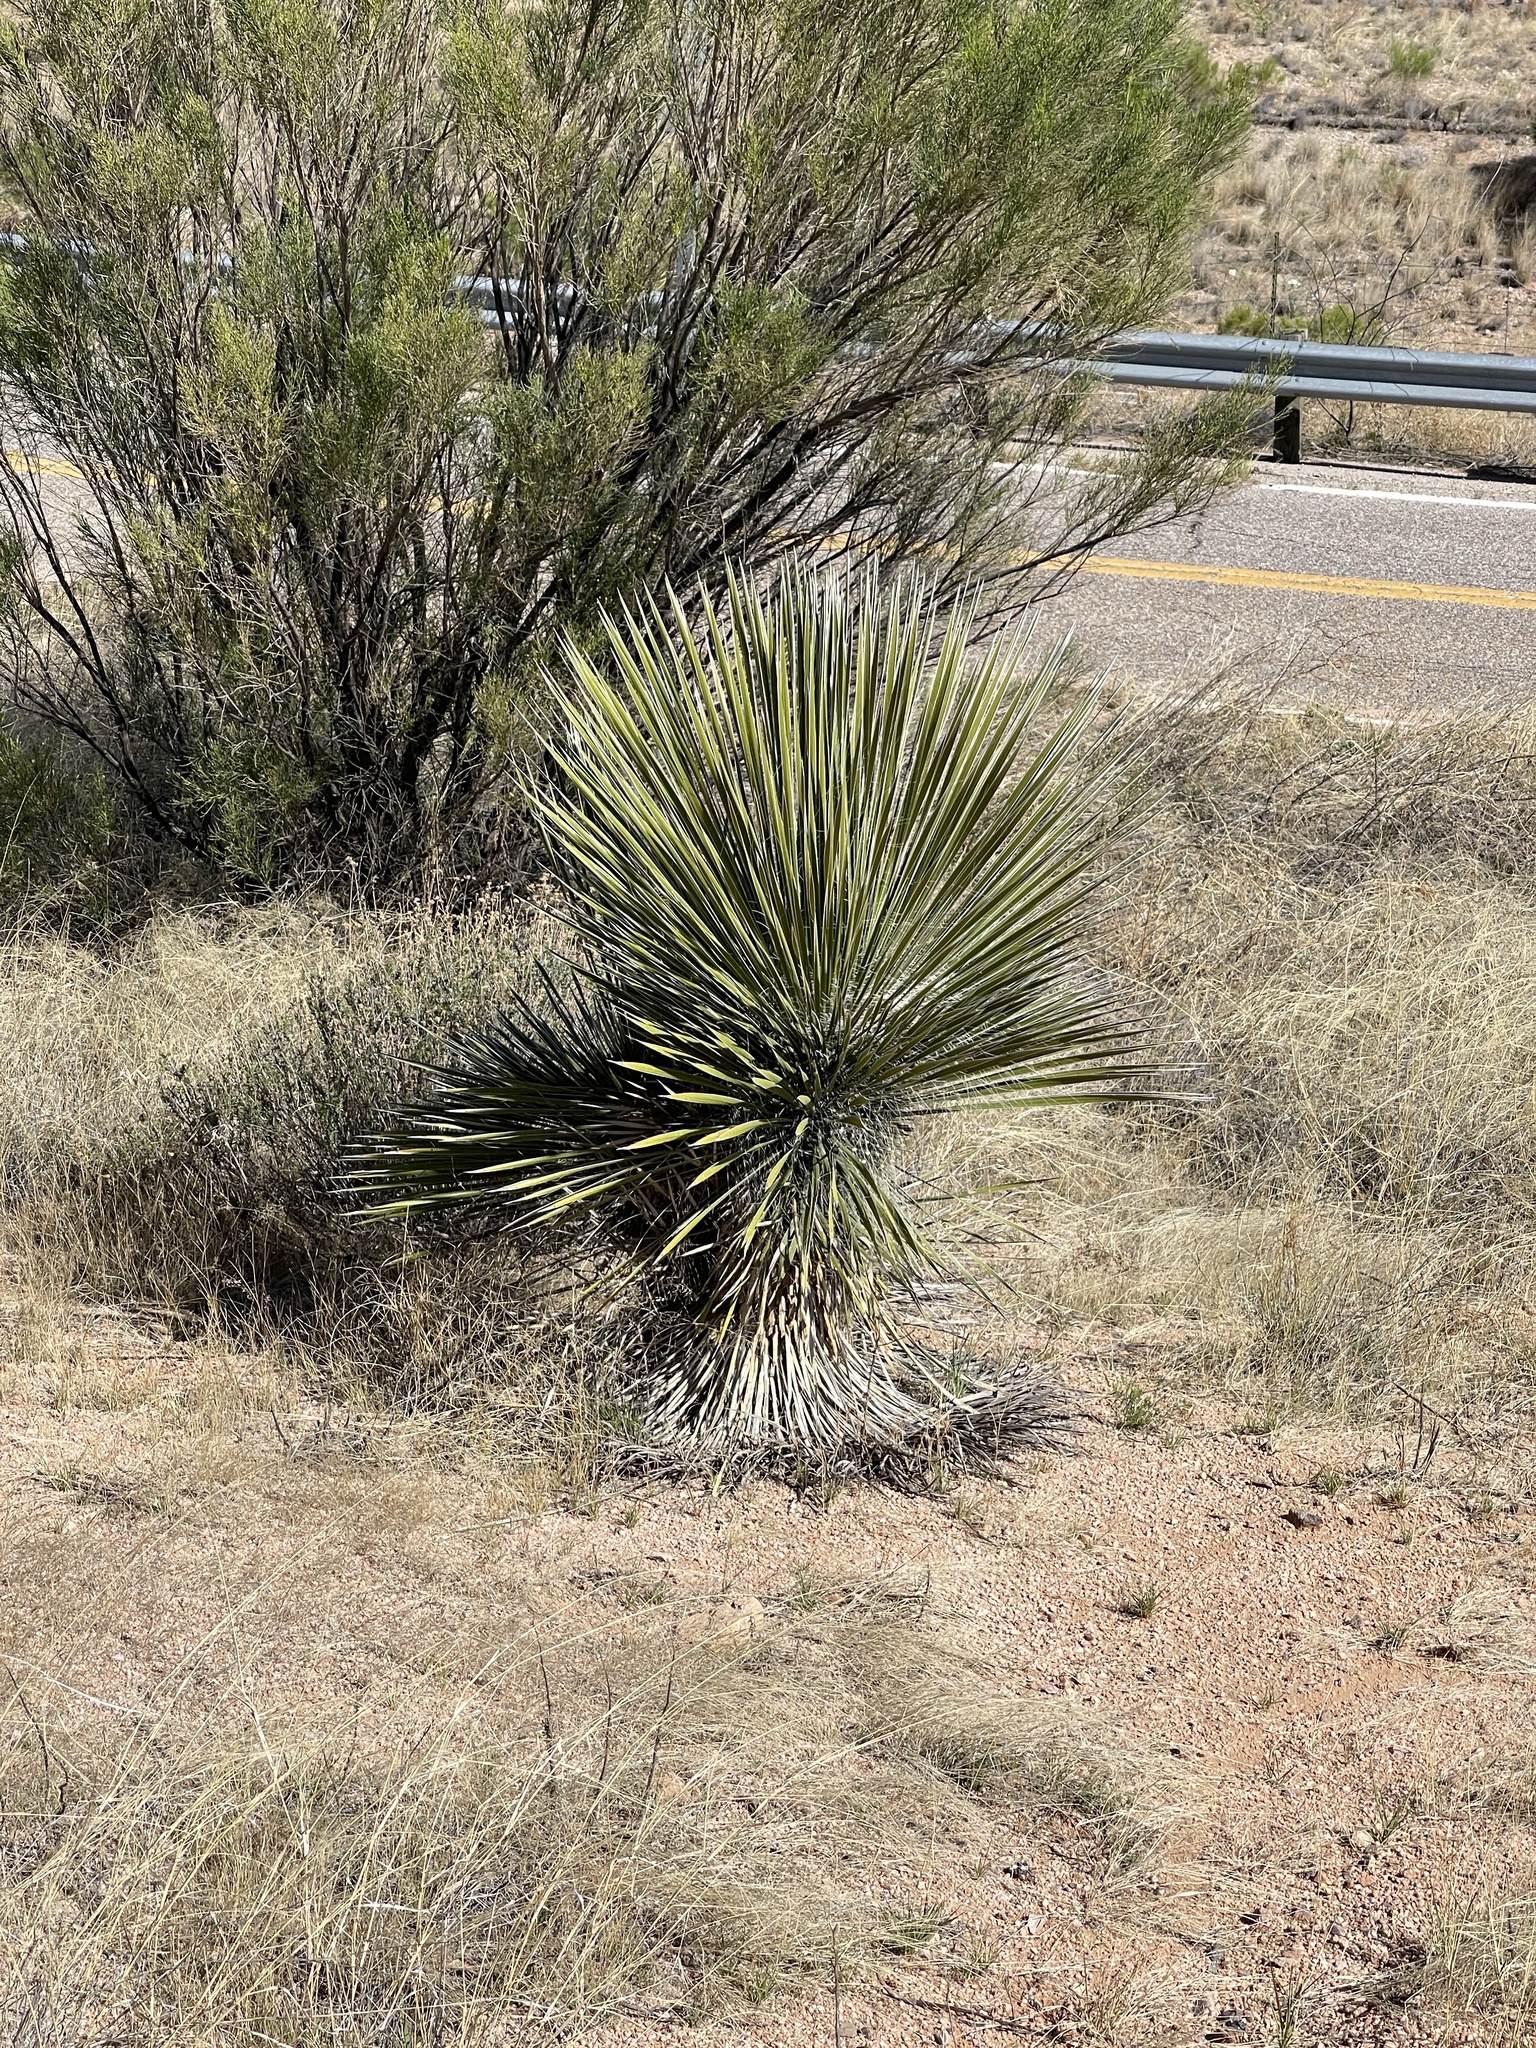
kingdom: Plantae
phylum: Tracheophyta
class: Liliopsida
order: Asparagales
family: Asparagaceae
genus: Yucca
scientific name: Yucca elata
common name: Palmella
